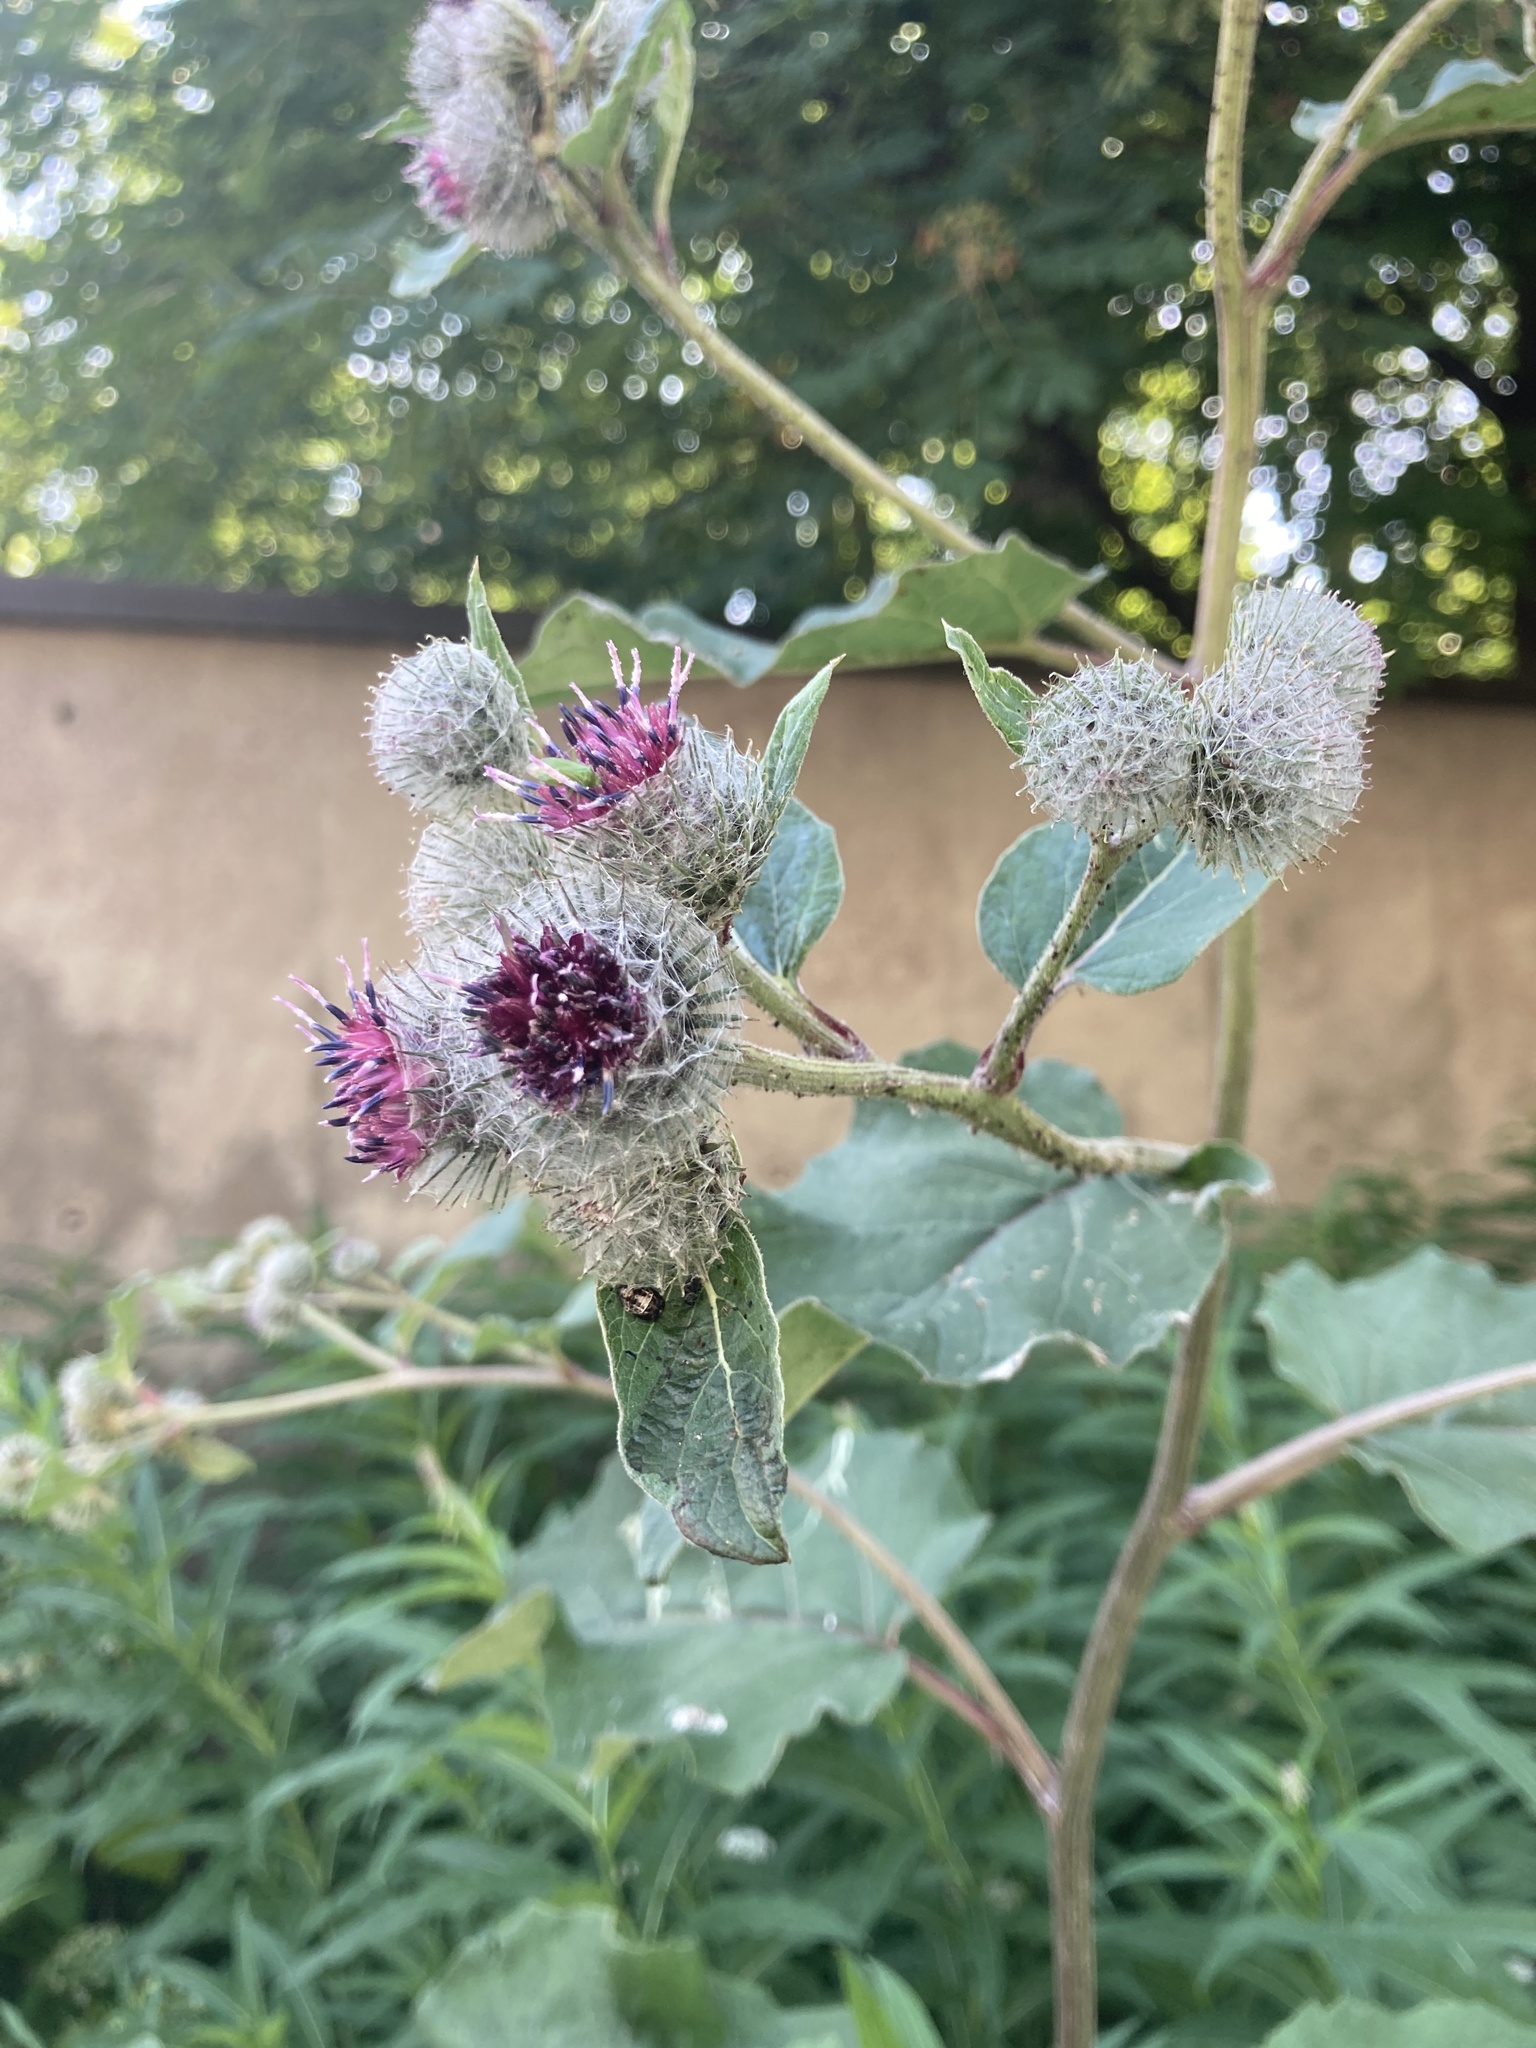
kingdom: Plantae
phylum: Tracheophyta
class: Magnoliopsida
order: Asterales
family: Asteraceae
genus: Arctium
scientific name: Arctium tomentosum
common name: Woolly burdock
